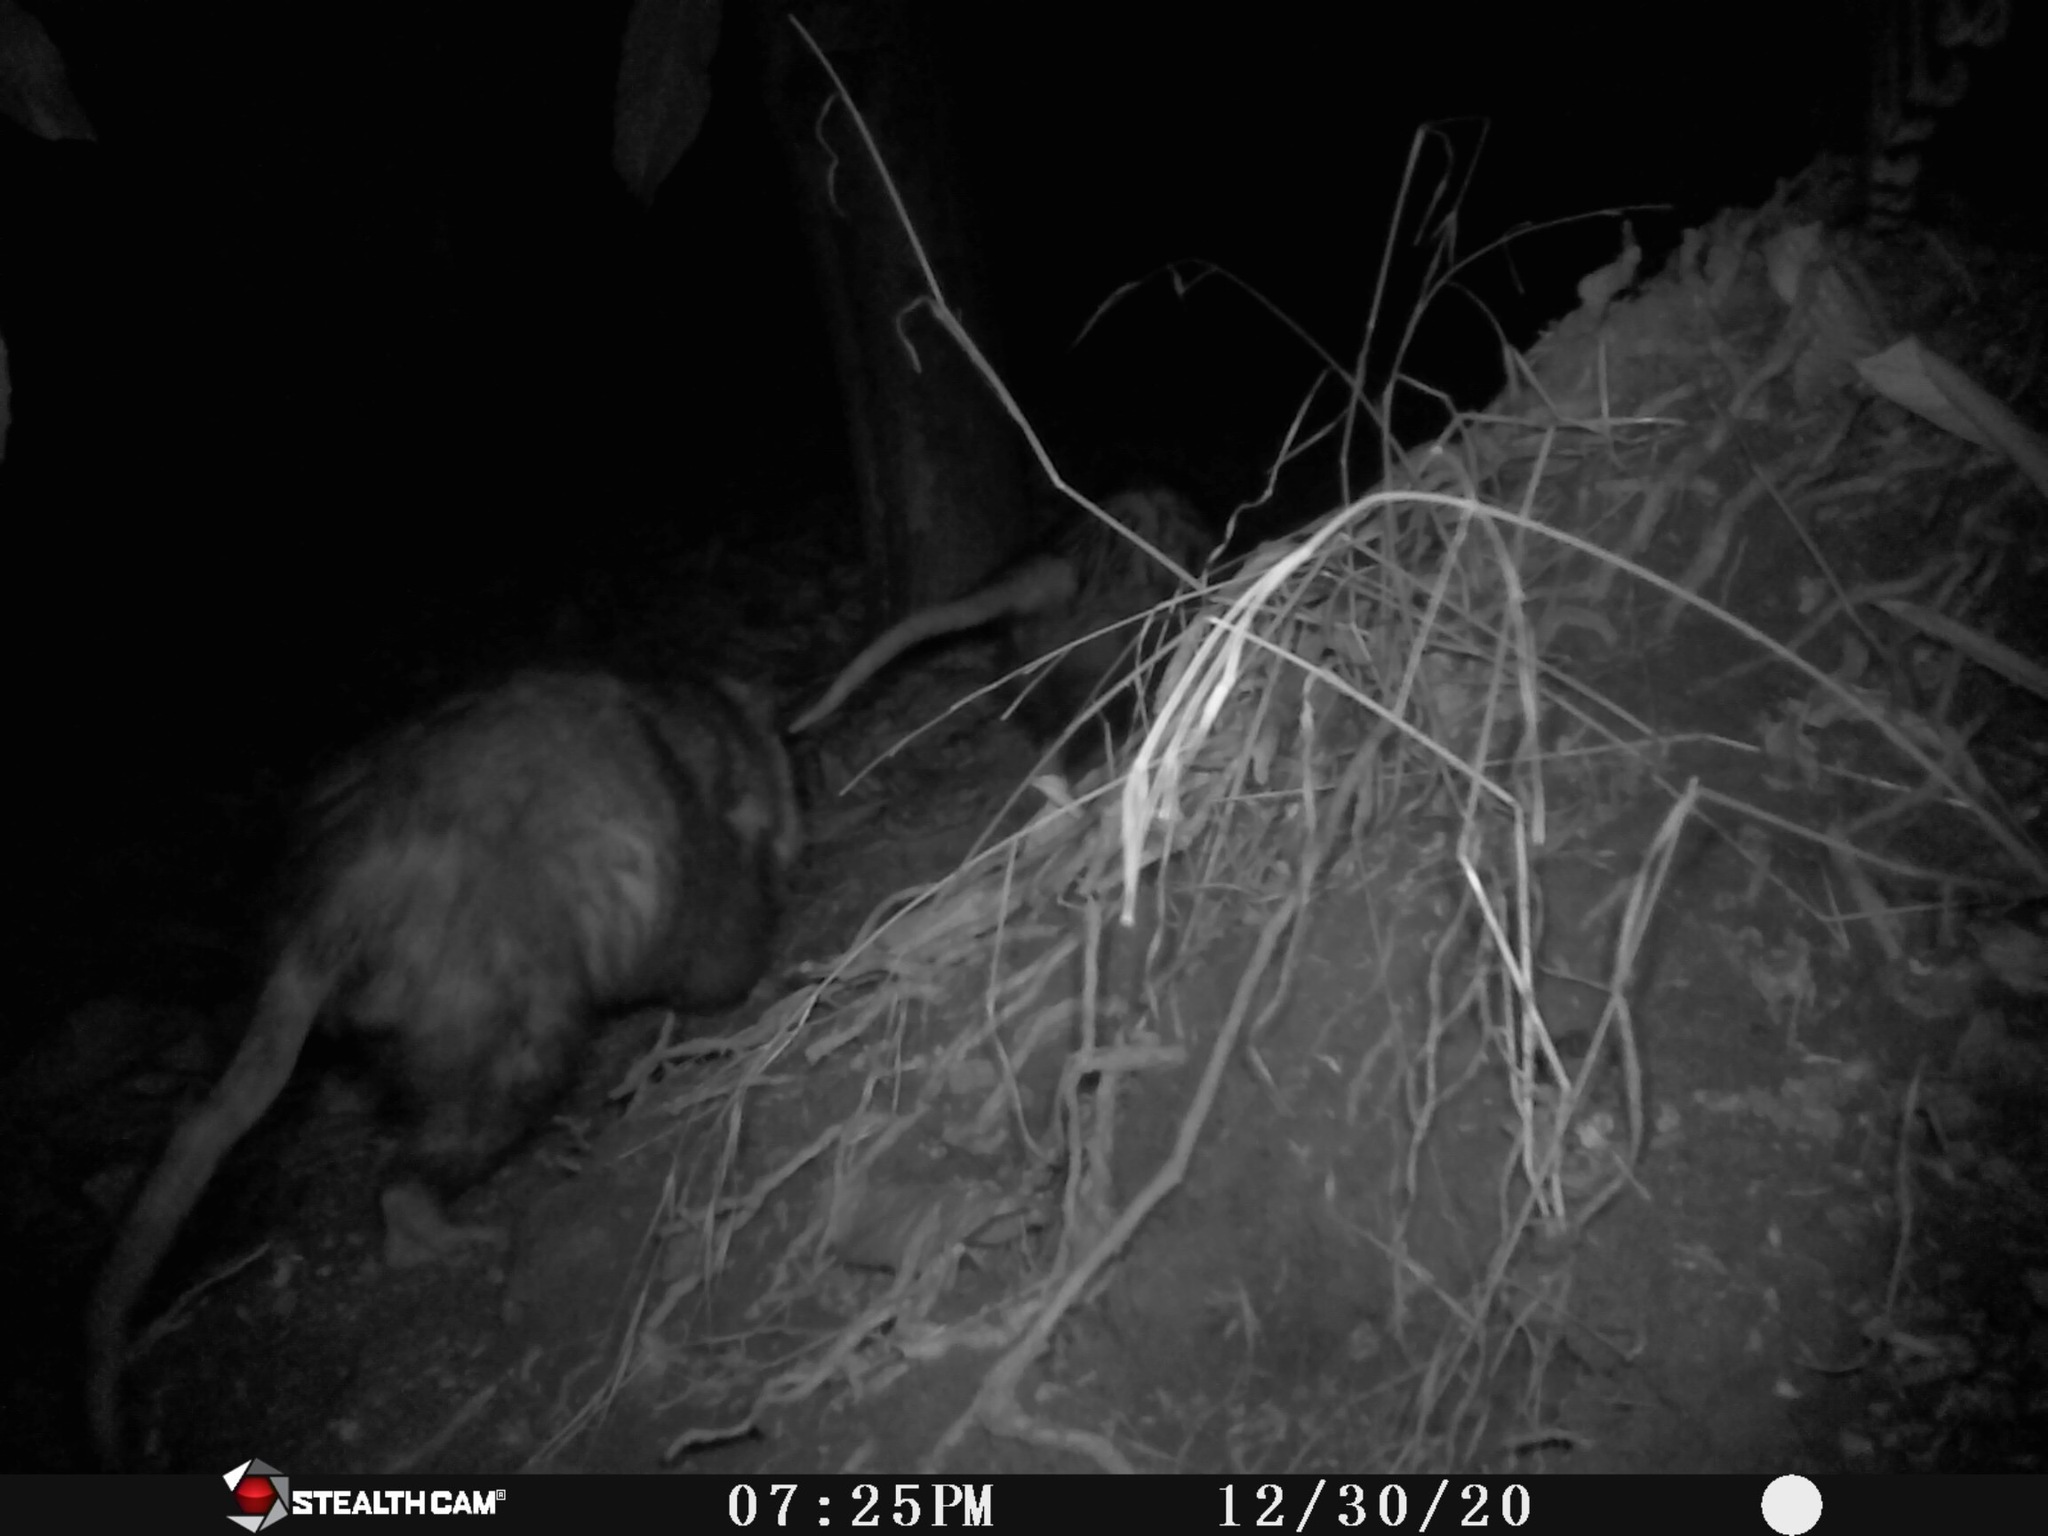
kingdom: Animalia
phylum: Chordata
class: Mammalia
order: Didelphimorphia
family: Didelphidae
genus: Didelphis
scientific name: Didelphis virginiana
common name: Virginia opossum
